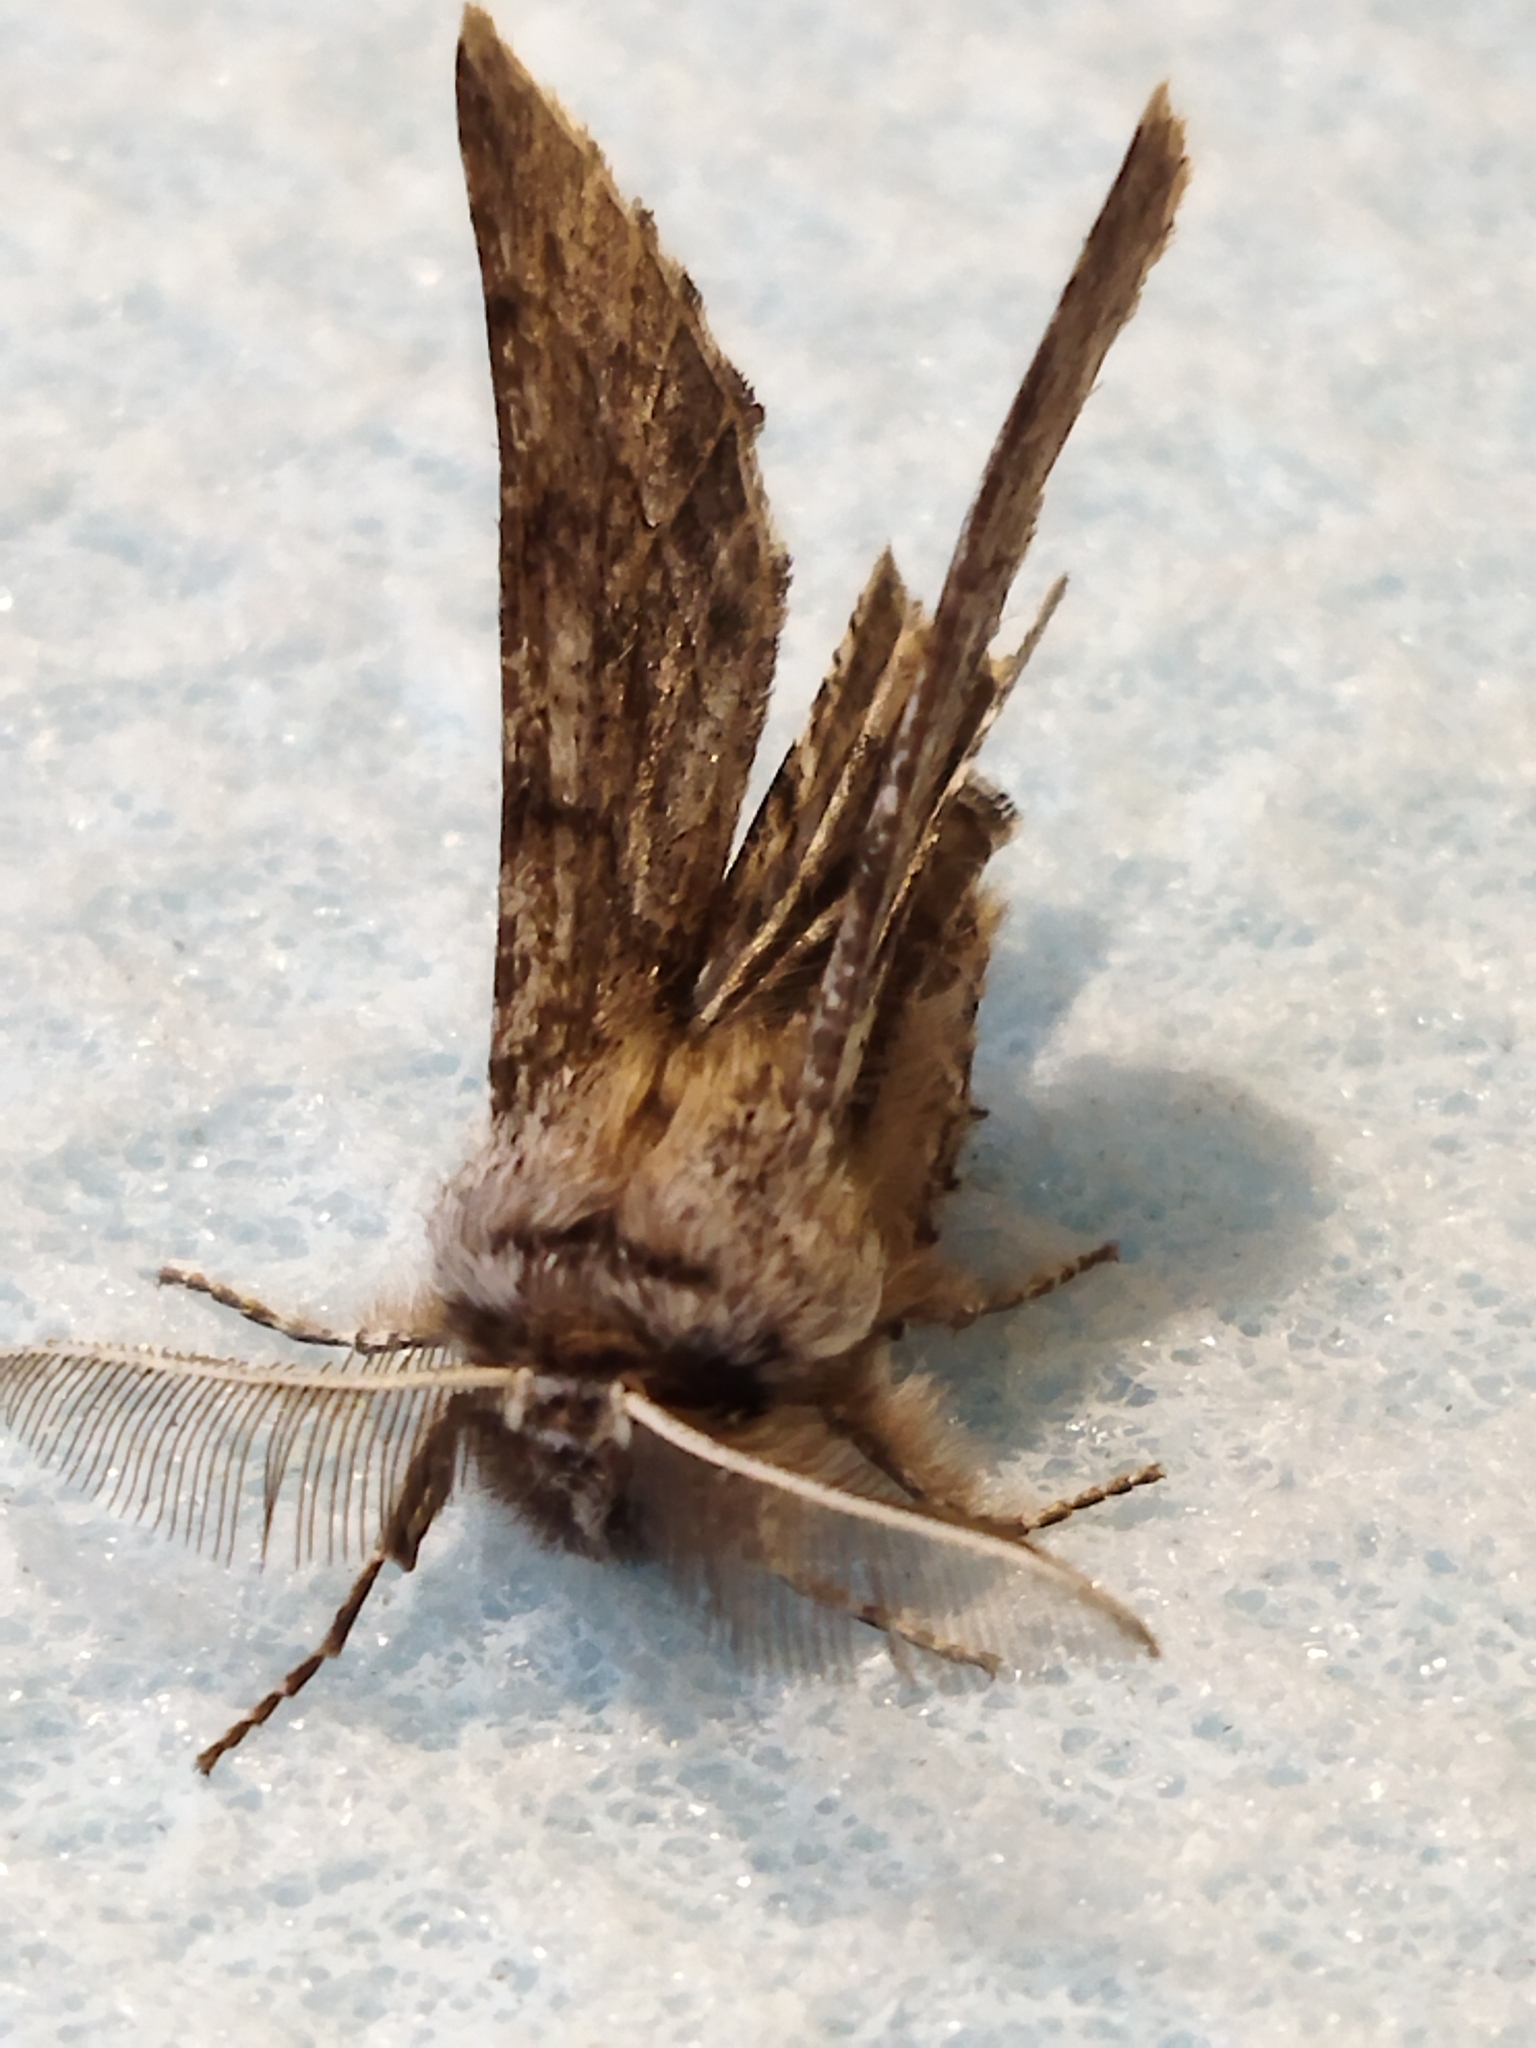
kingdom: Animalia
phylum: Arthropoda
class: Insecta
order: Lepidoptera
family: Geometridae
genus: Apochima
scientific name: Apochima flabellaria
